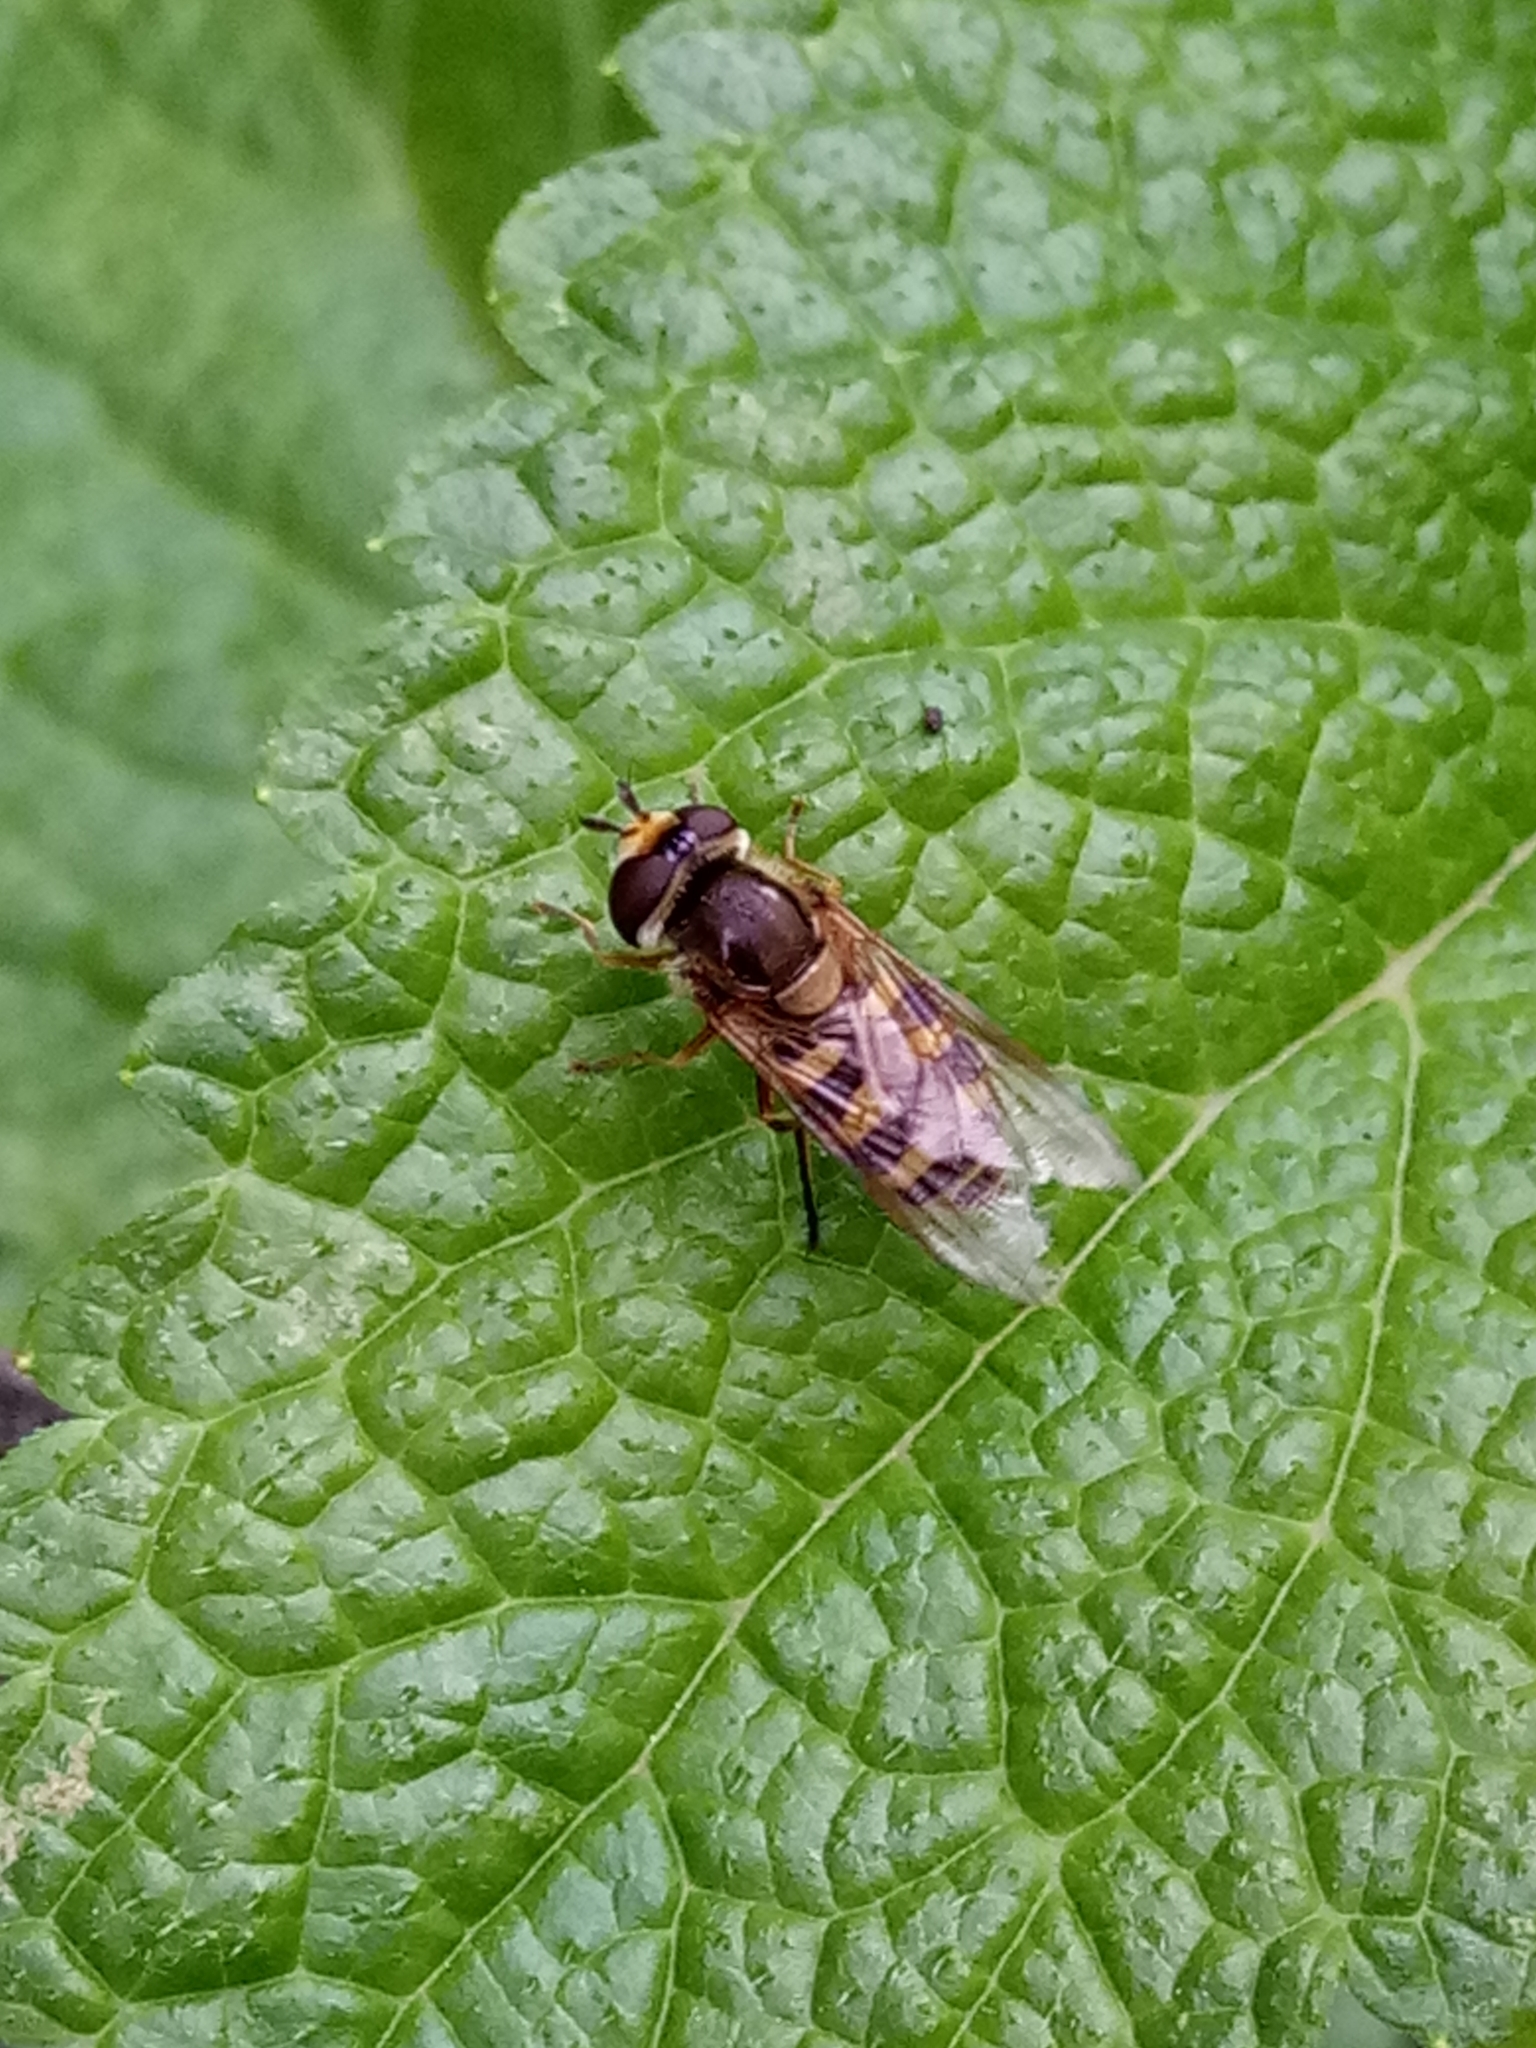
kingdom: Animalia
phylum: Arthropoda
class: Insecta
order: Diptera
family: Syrphidae
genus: Eupeodes
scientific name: Eupeodes corollae
